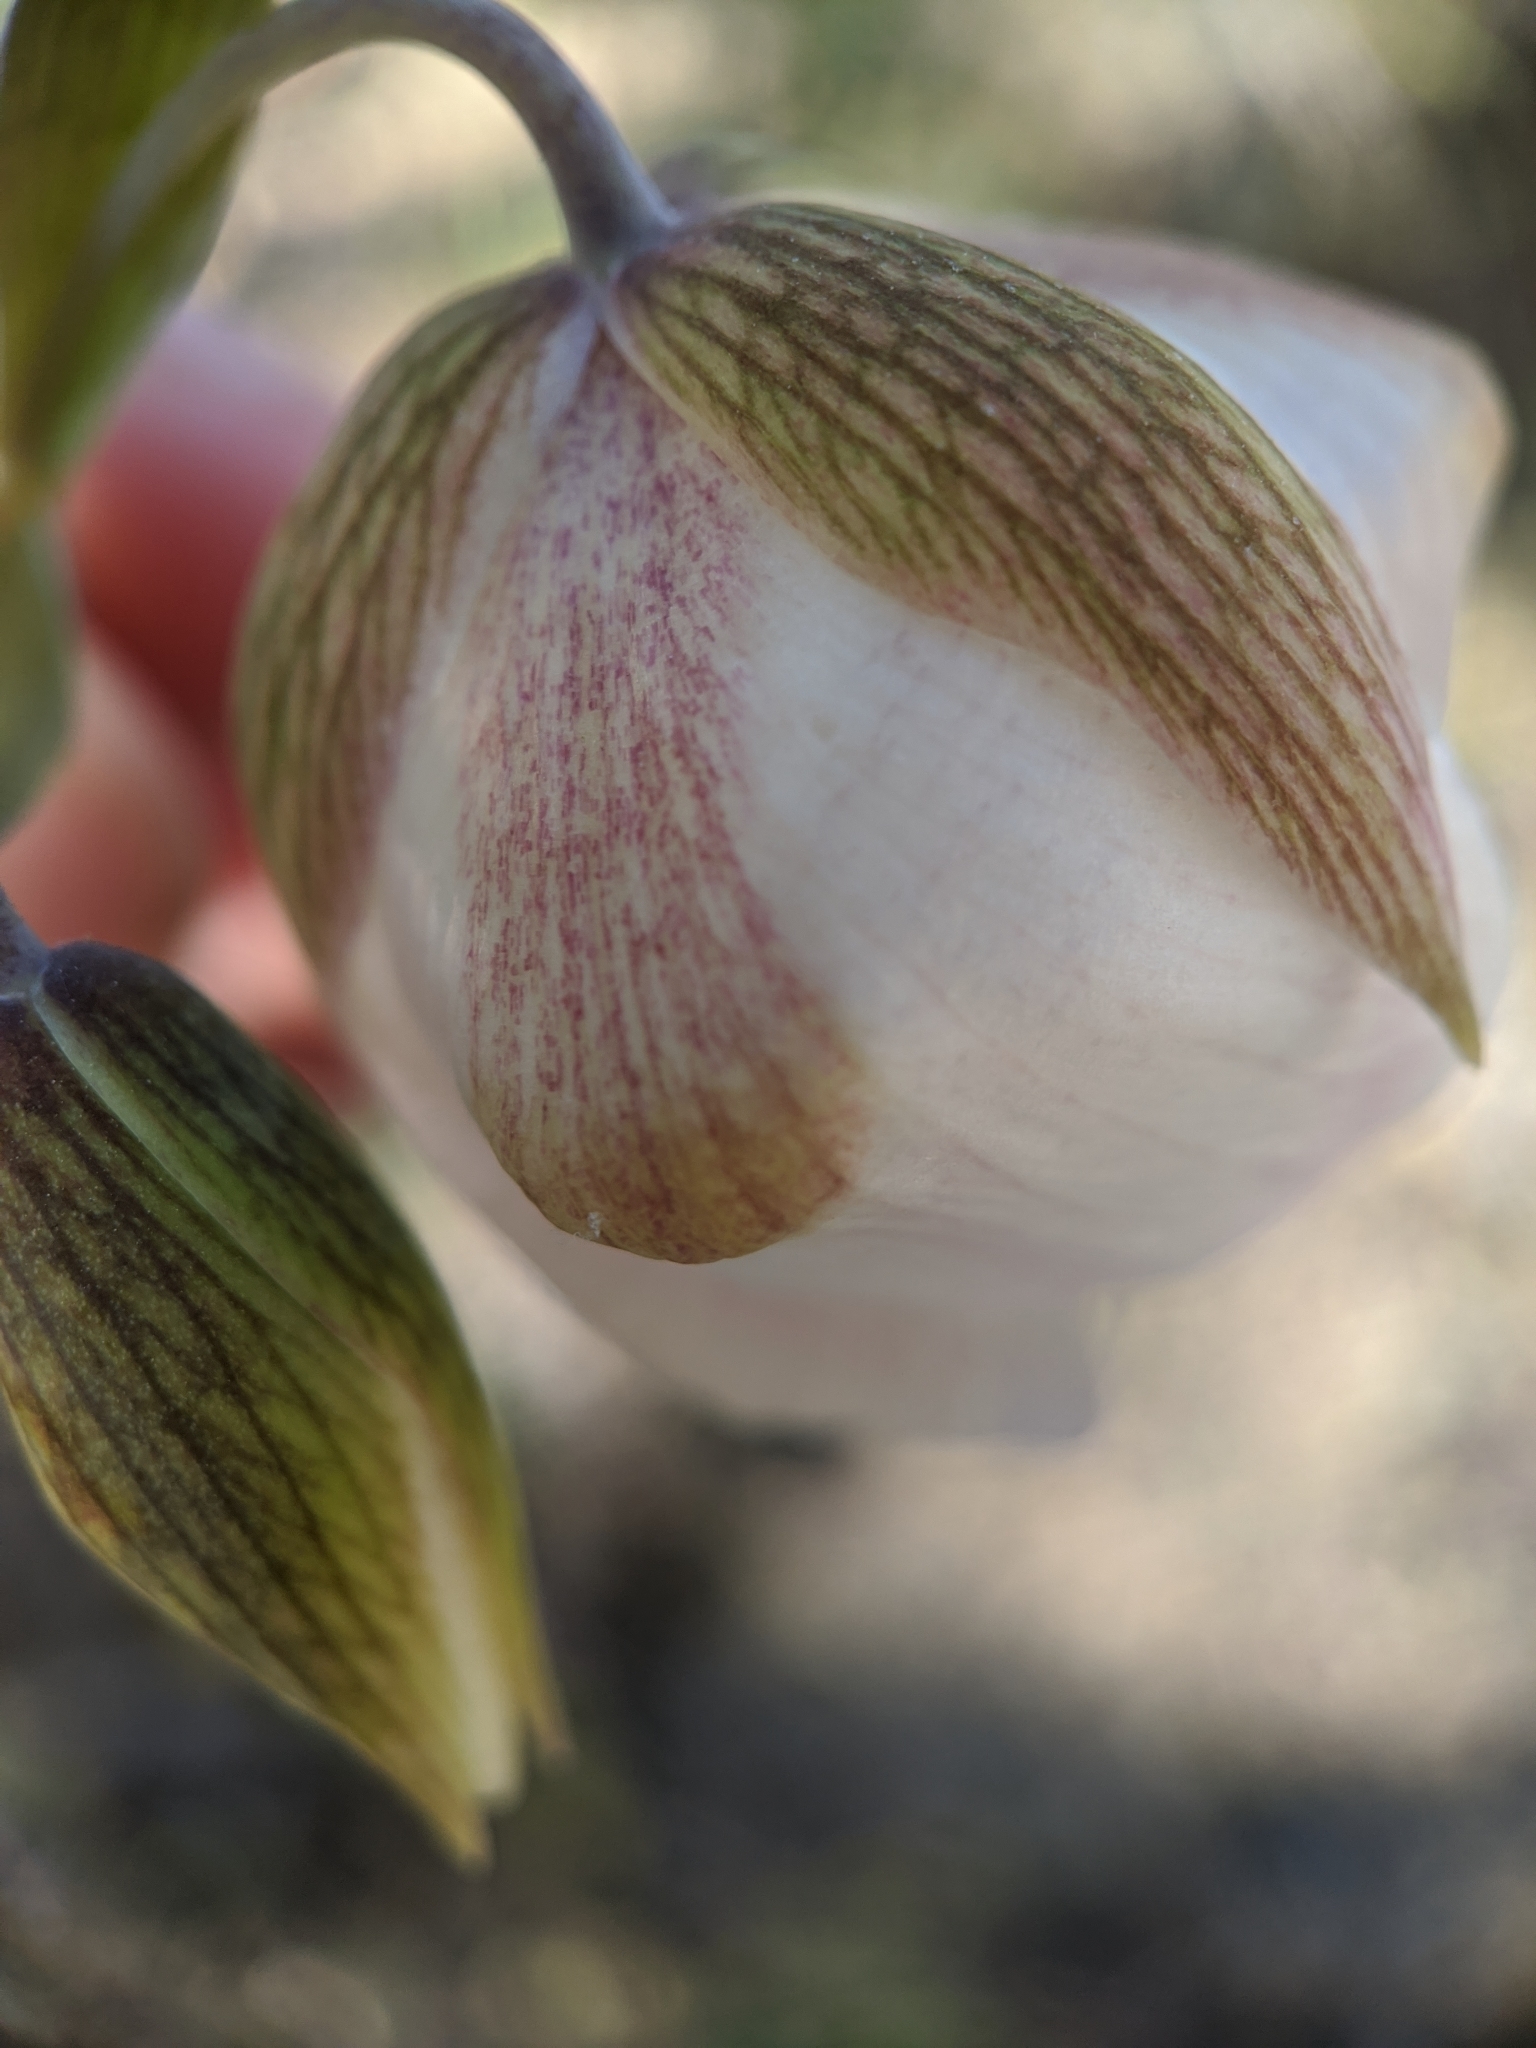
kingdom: Plantae
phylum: Tracheophyta
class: Liliopsida
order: Liliales
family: Liliaceae
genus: Calochortus
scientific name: Calochortus albus
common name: Fairy-lantern
